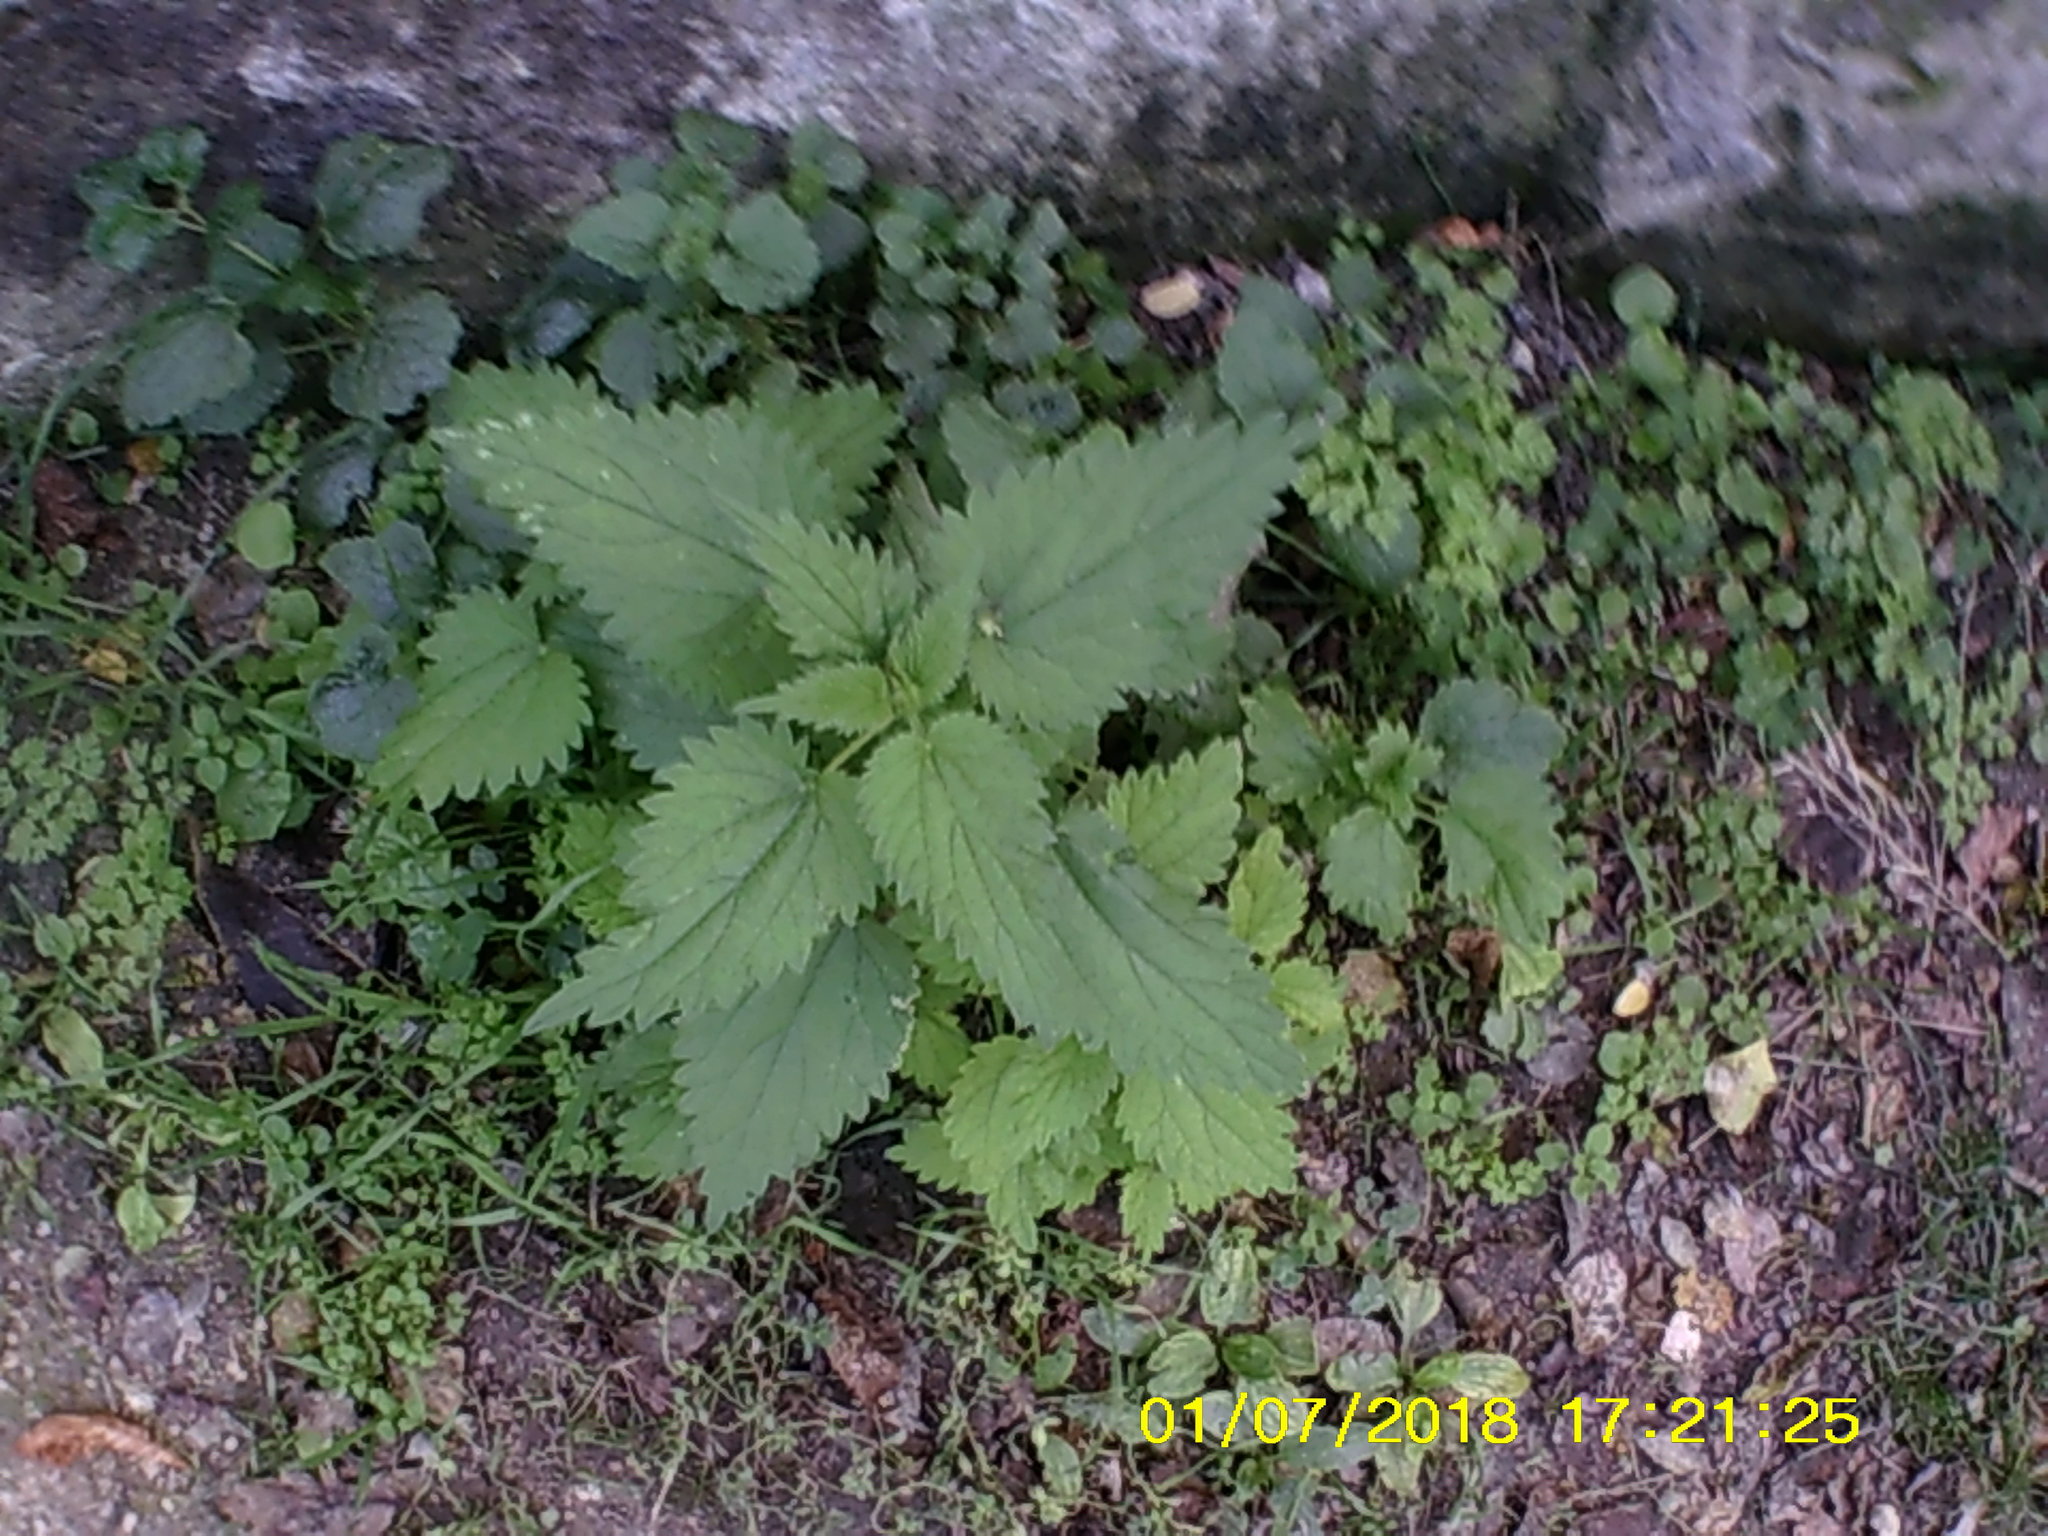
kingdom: Plantae
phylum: Tracheophyta
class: Magnoliopsida
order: Rosales
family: Urticaceae
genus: Urtica
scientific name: Urtica dioica
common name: Common nettle
